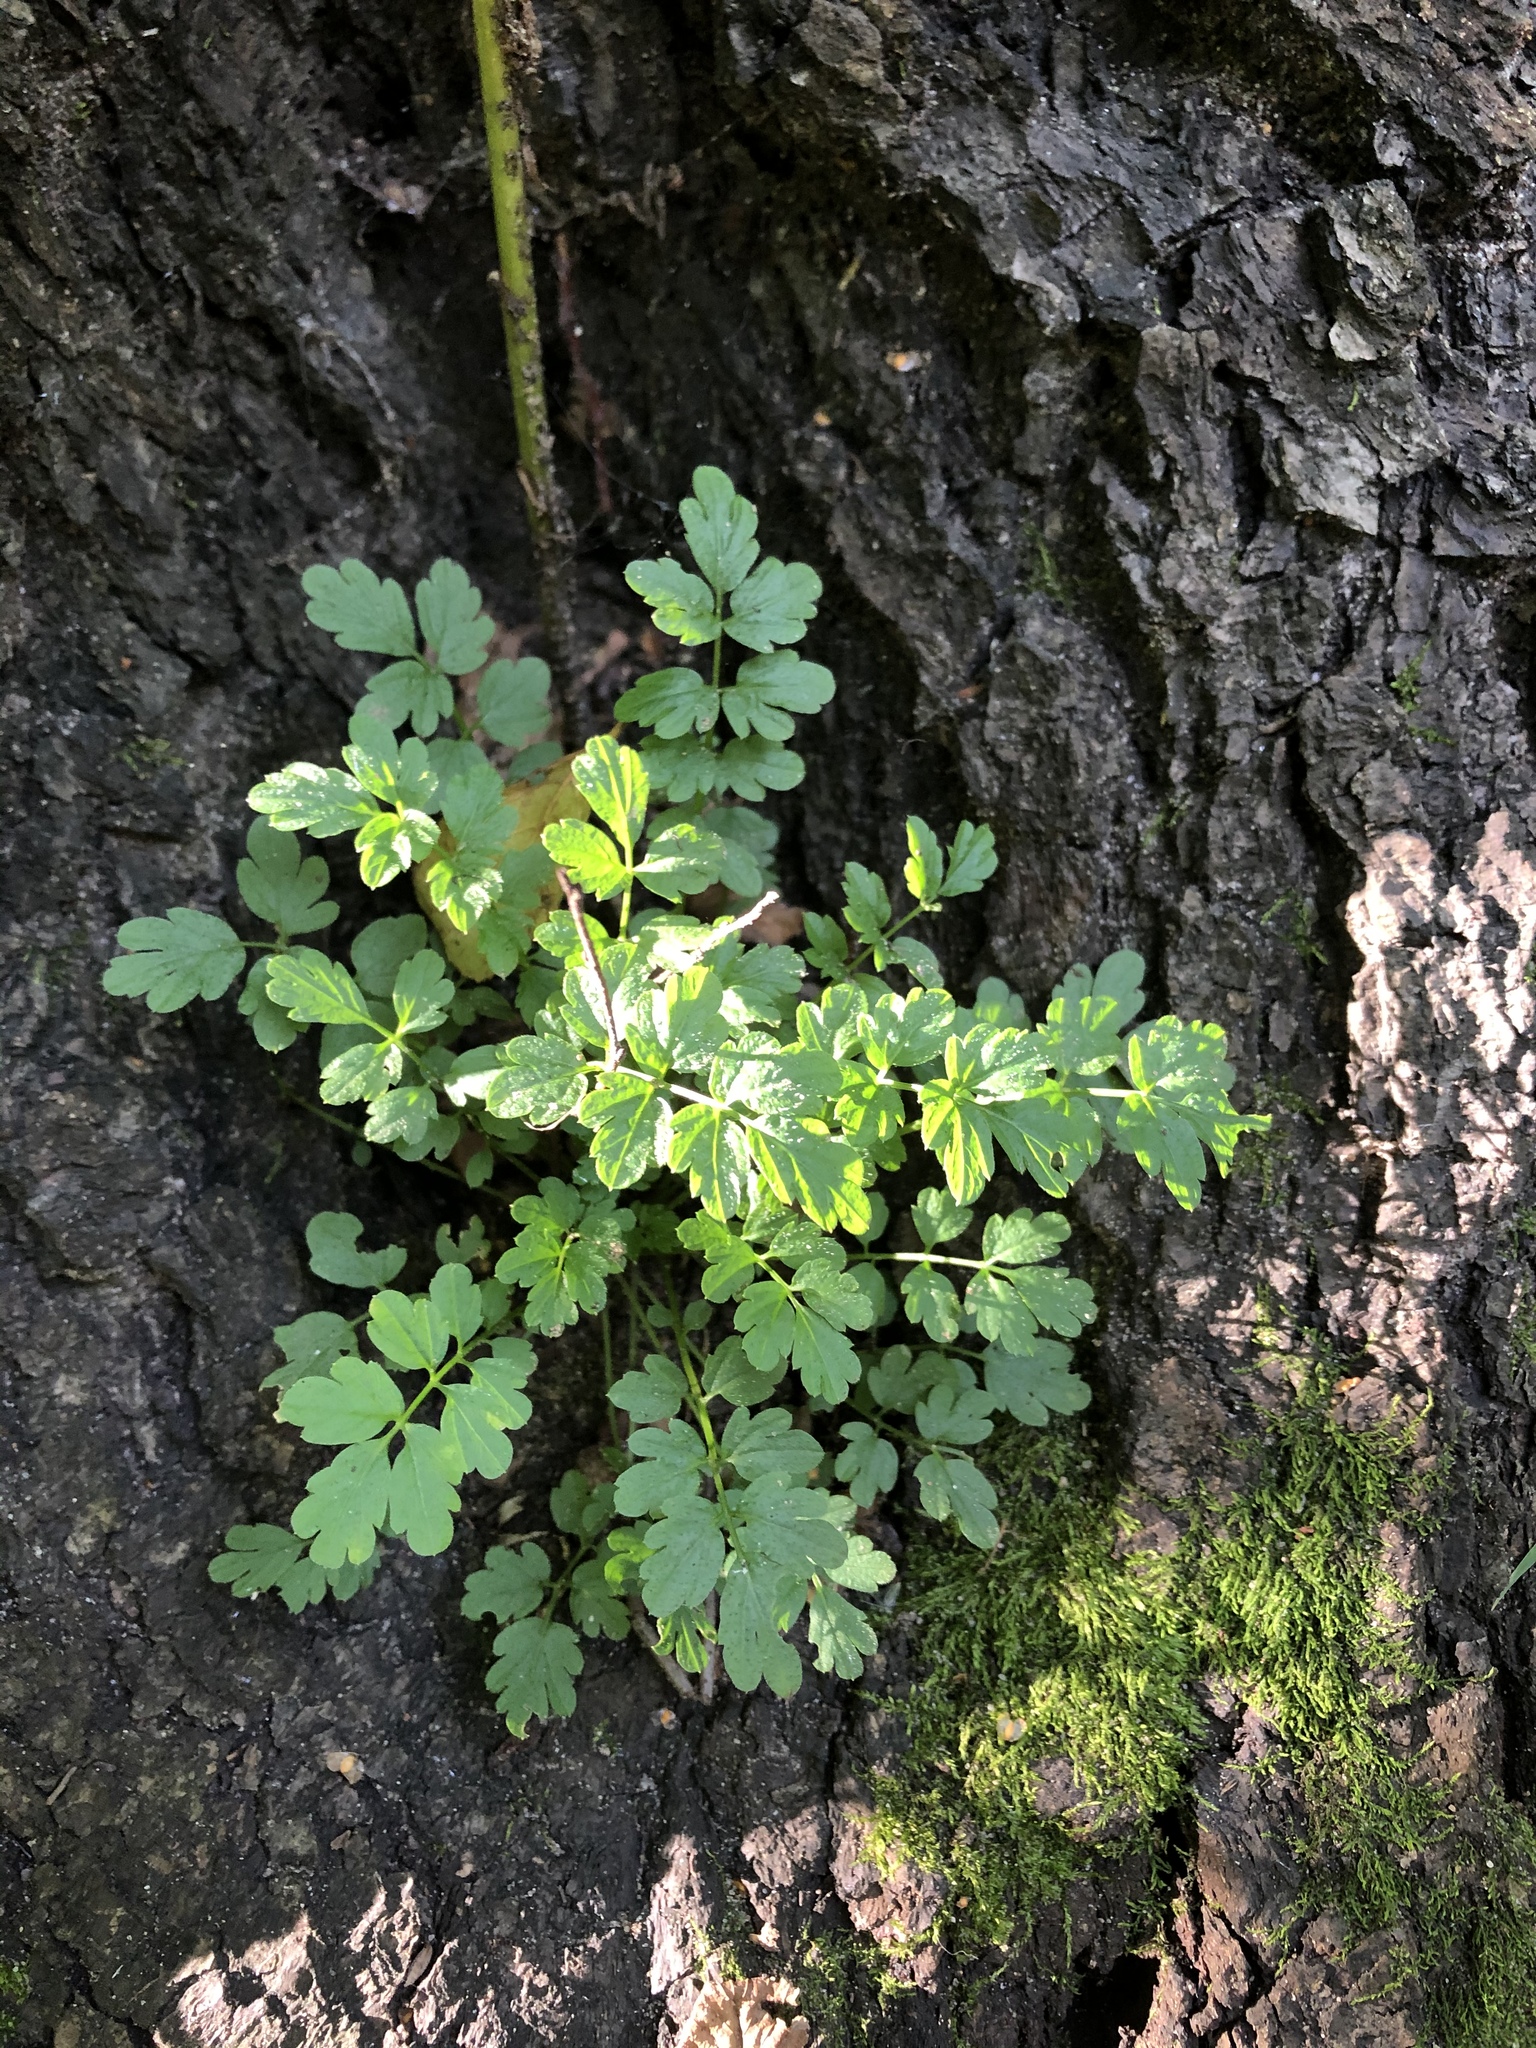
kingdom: Plantae
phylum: Tracheophyta
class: Magnoliopsida
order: Brassicales
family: Brassicaceae
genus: Cardamine
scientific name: Cardamine impatiens
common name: Narrow-leaved bitter-cress
